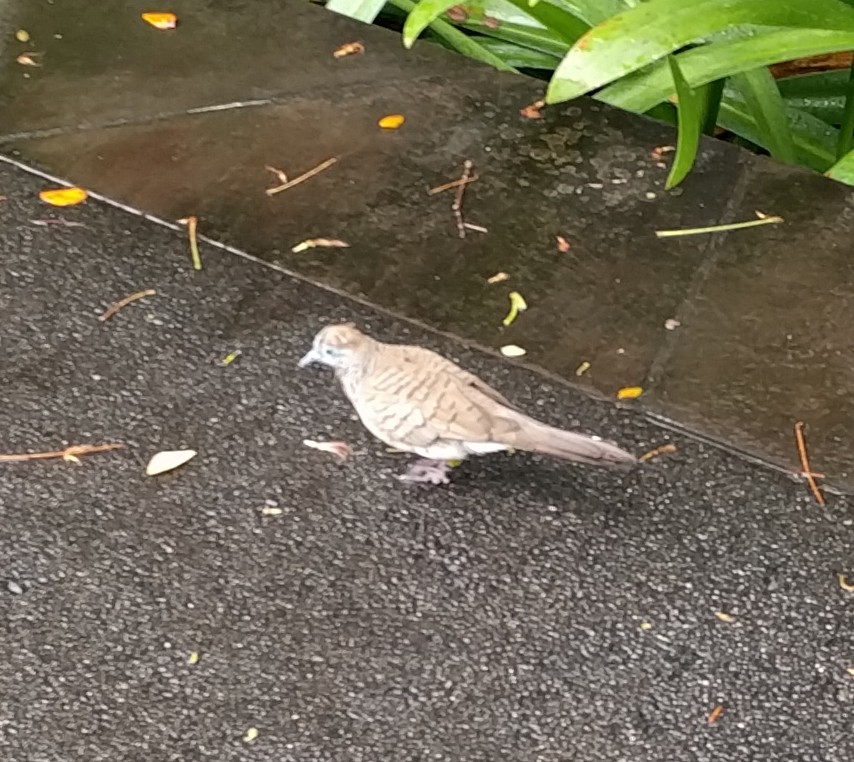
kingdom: Animalia
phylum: Chordata
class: Aves
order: Columbiformes
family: Columbidae
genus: Geopelia
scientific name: Geopelia striata
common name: Zebra dove
